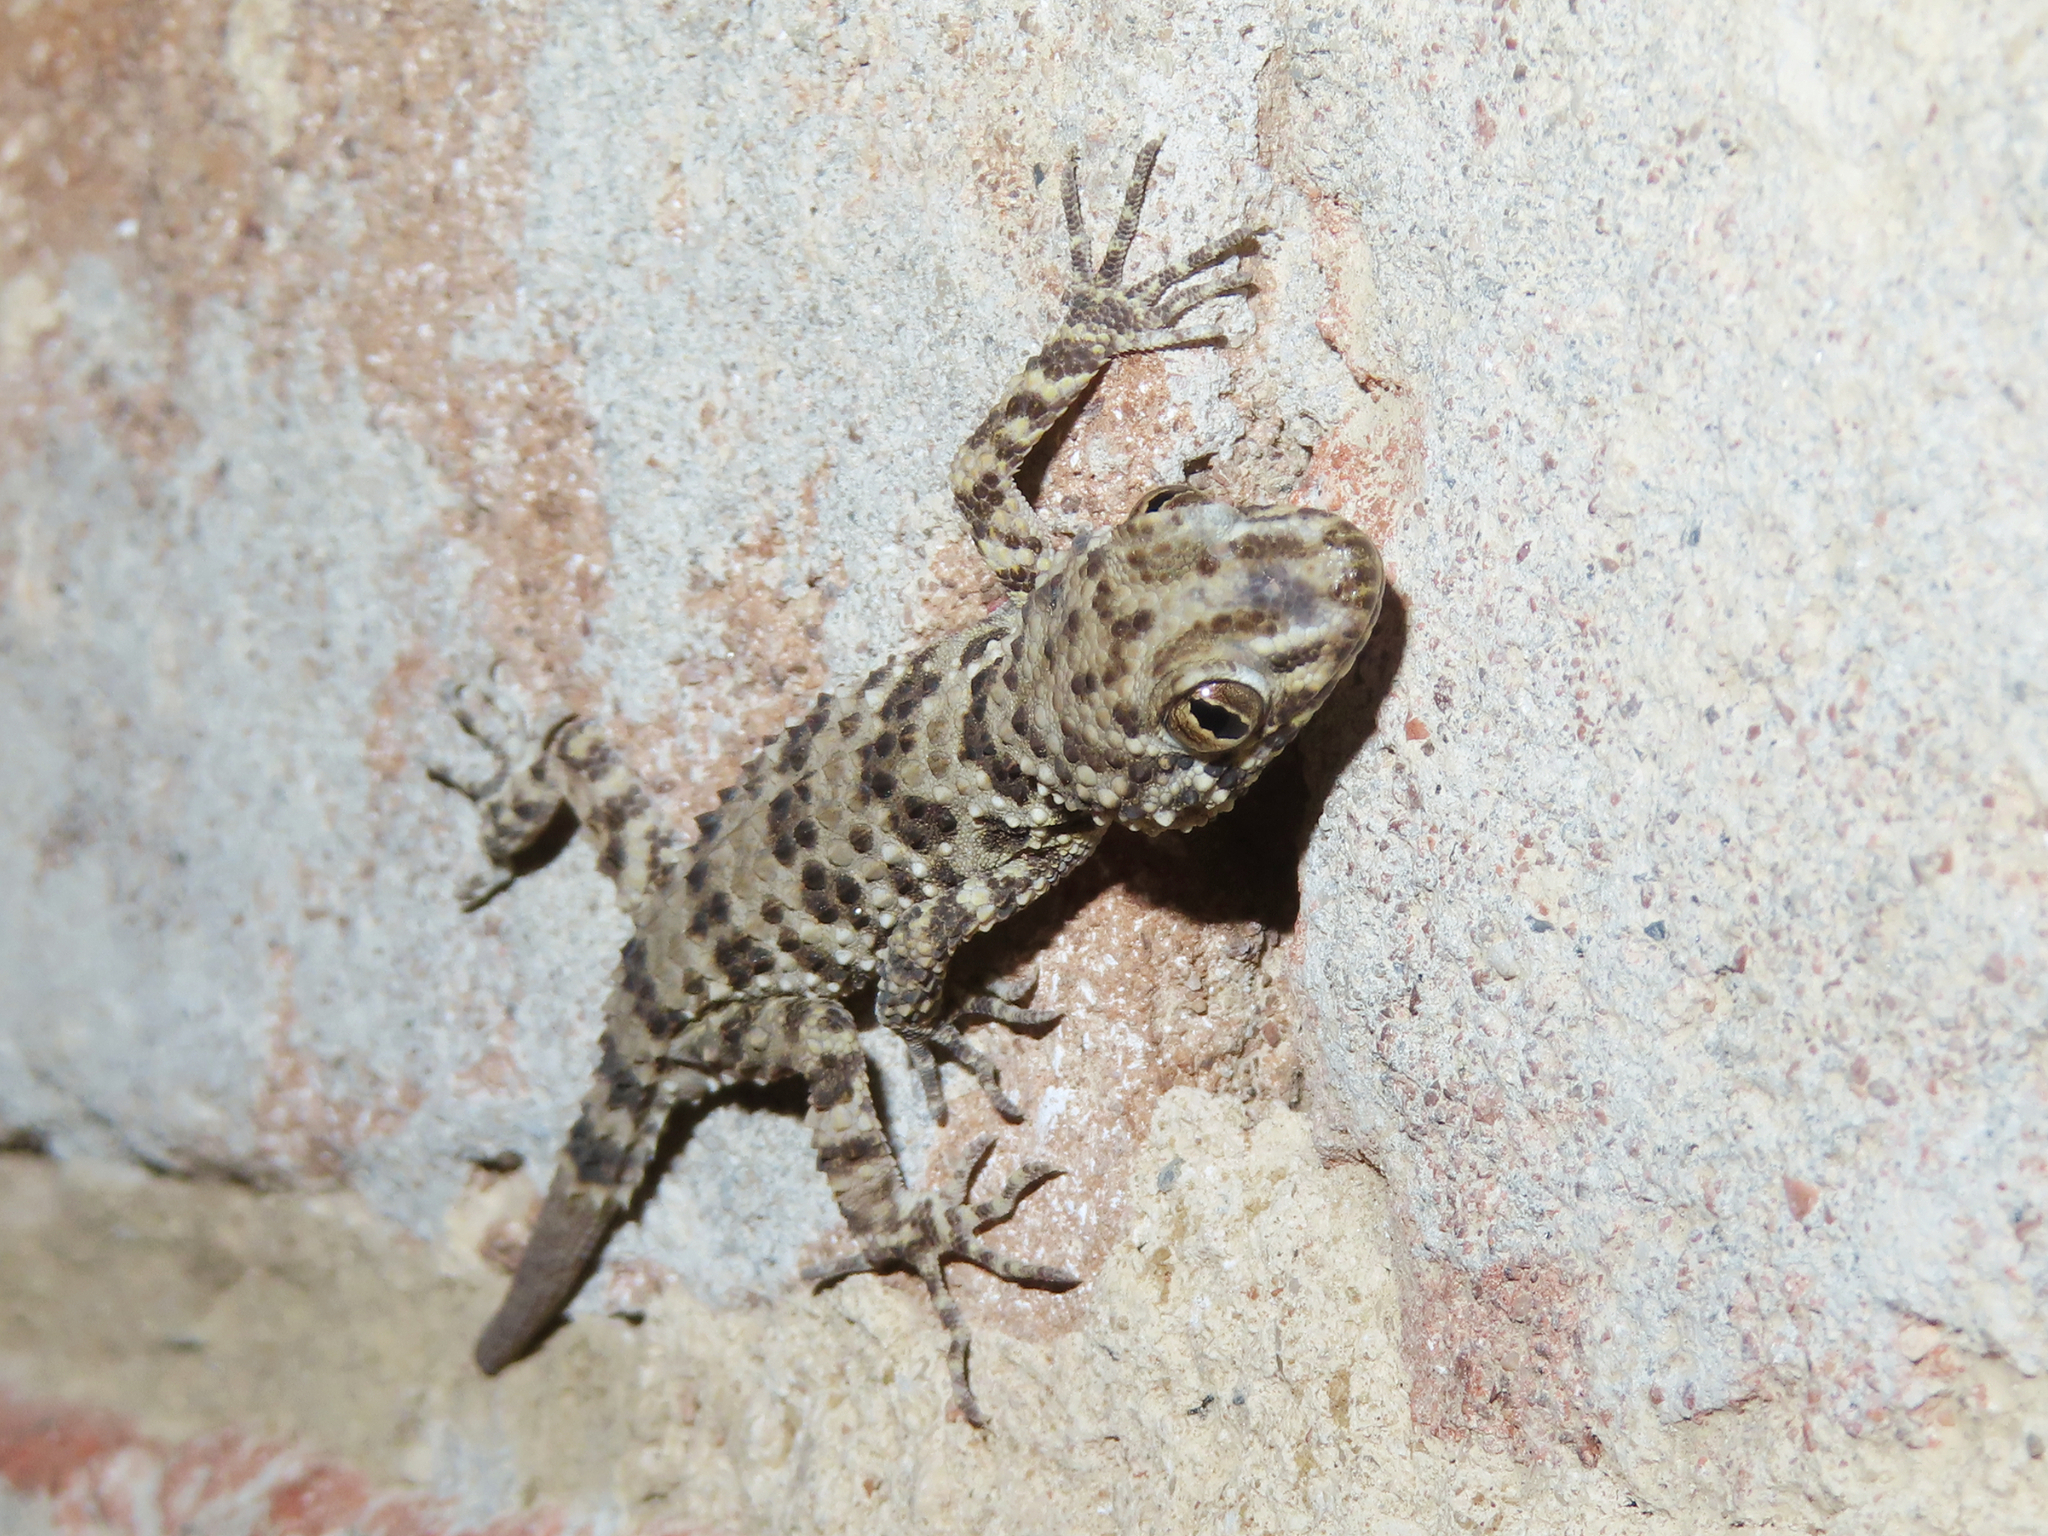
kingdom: Animalia
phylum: Chordata
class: Squamata
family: Gekkonidae
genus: Tenuidactylus
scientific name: Tenuidactylus caspius
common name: Caspian bent-toed gecko
